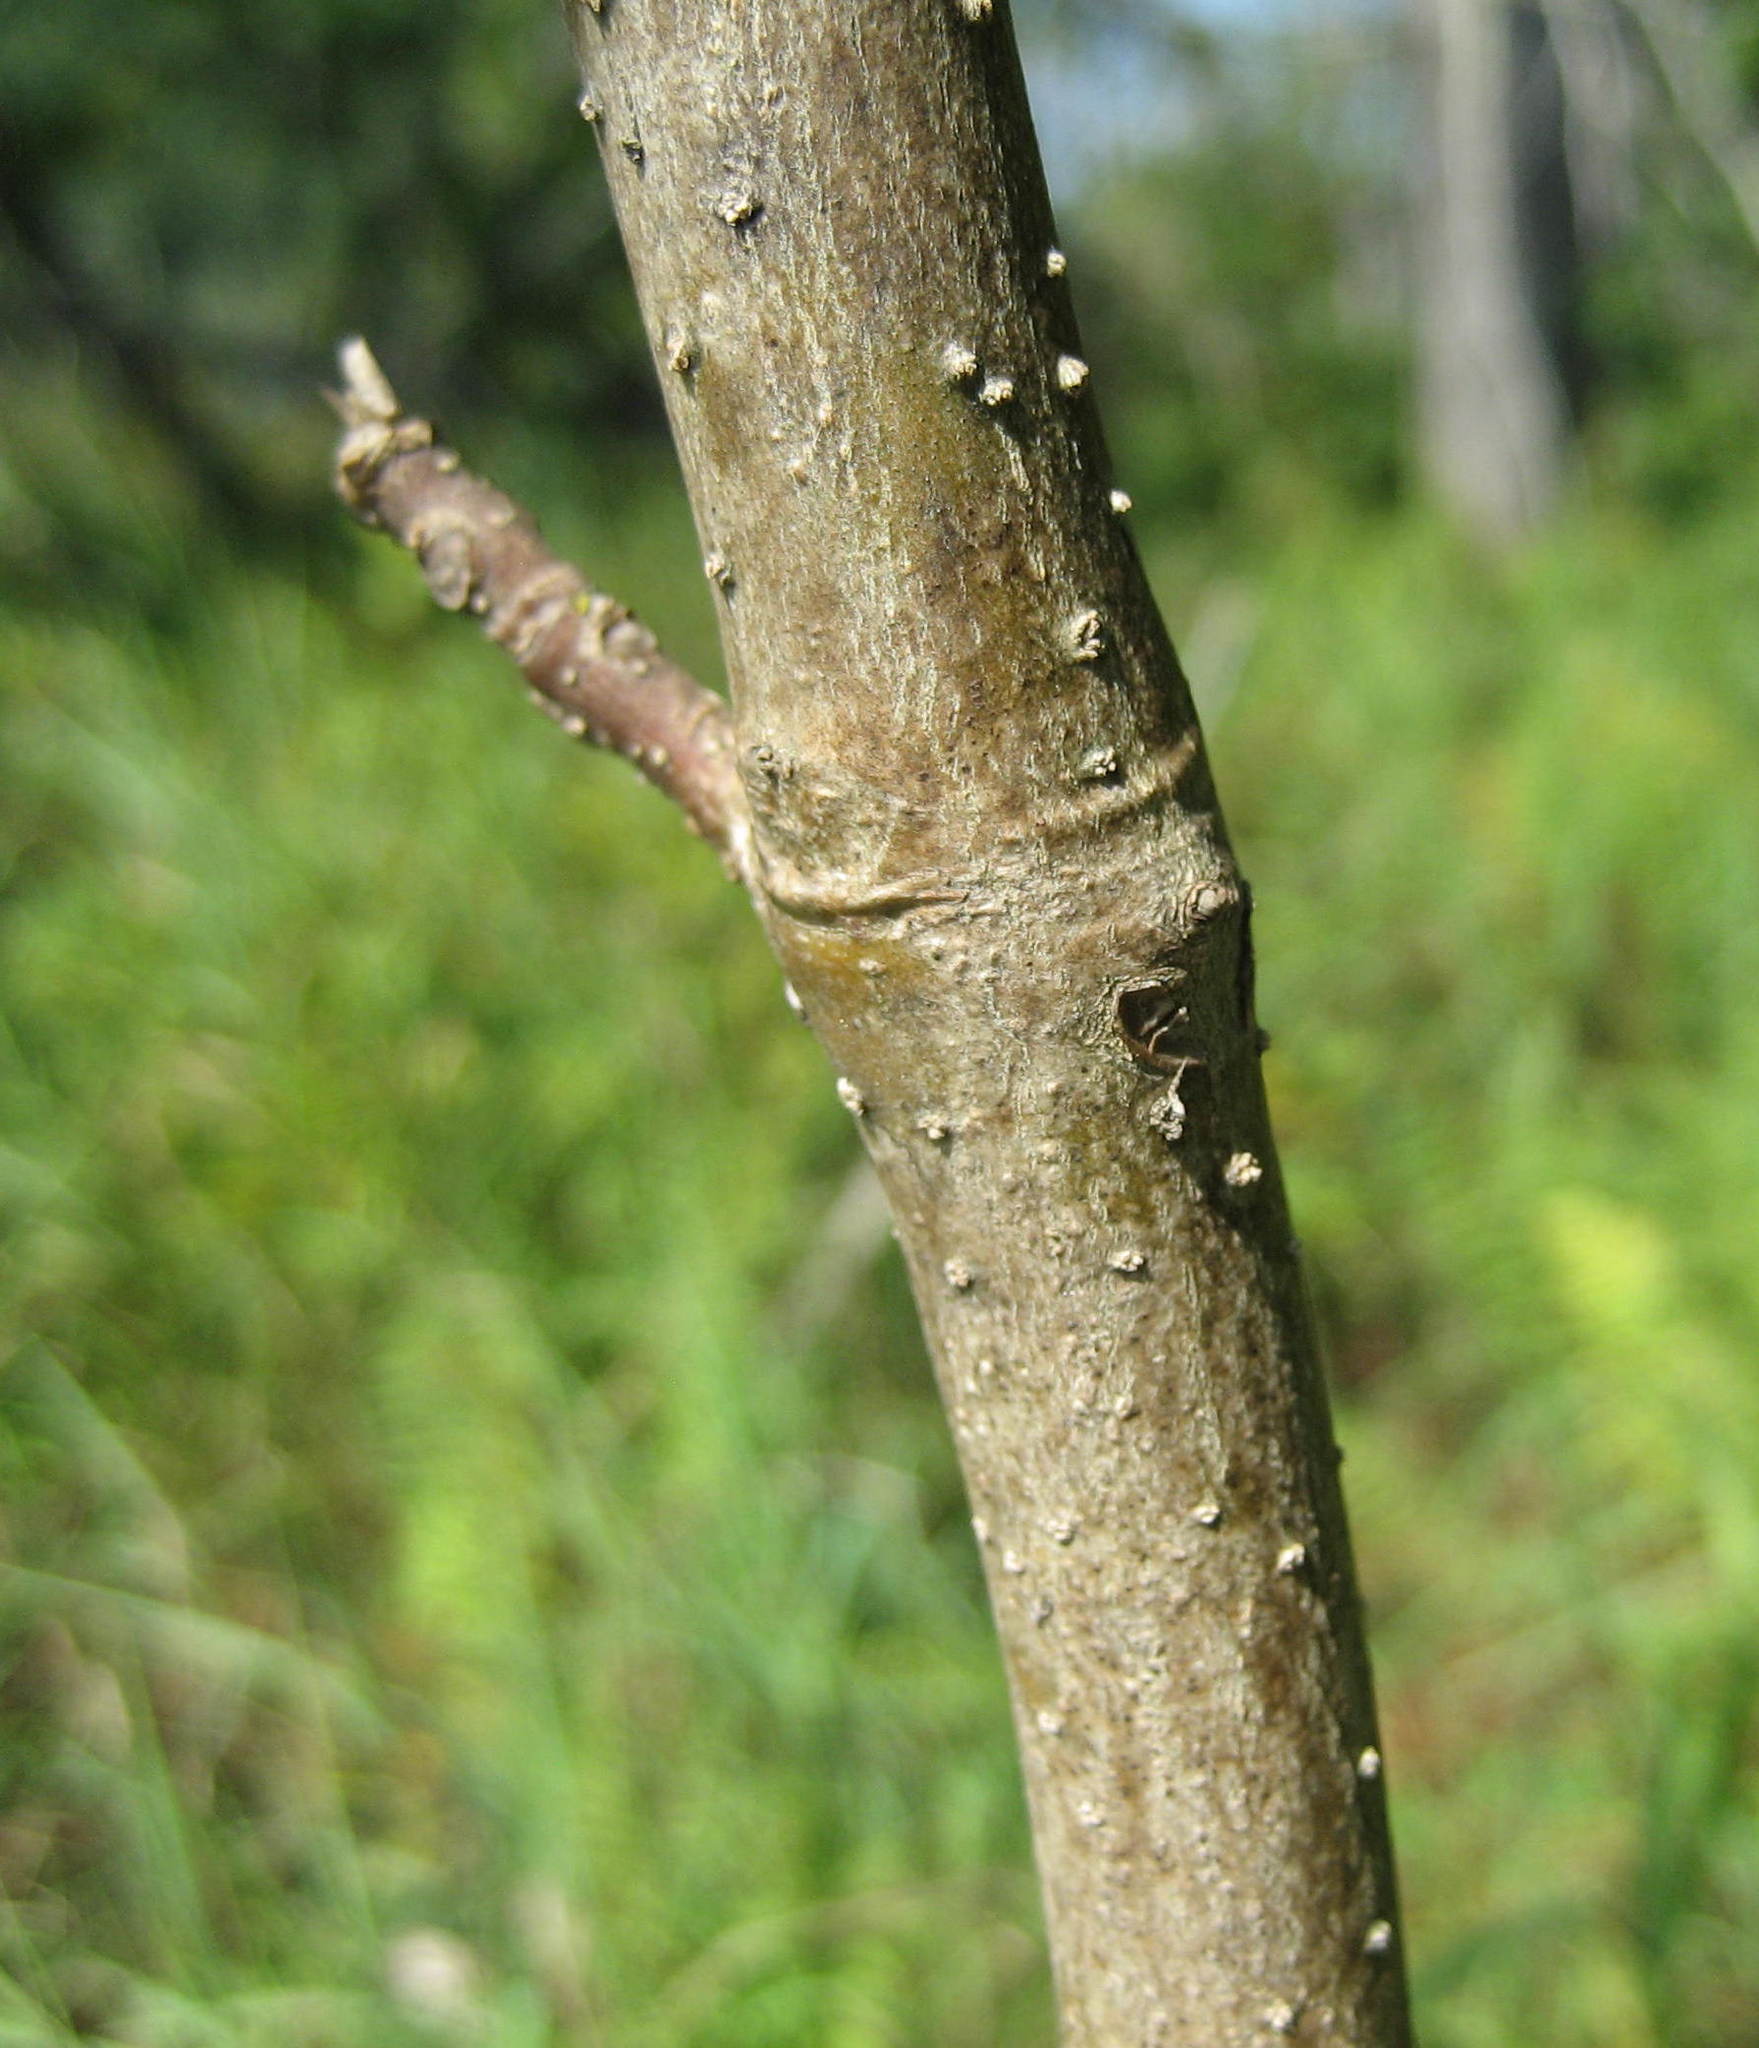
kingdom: Plantae
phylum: Tracheophyta
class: Magnoliopsida
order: Lamiales
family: Oleaceae
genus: Fraxinus
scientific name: Fraxinus nigra
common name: Black ash
